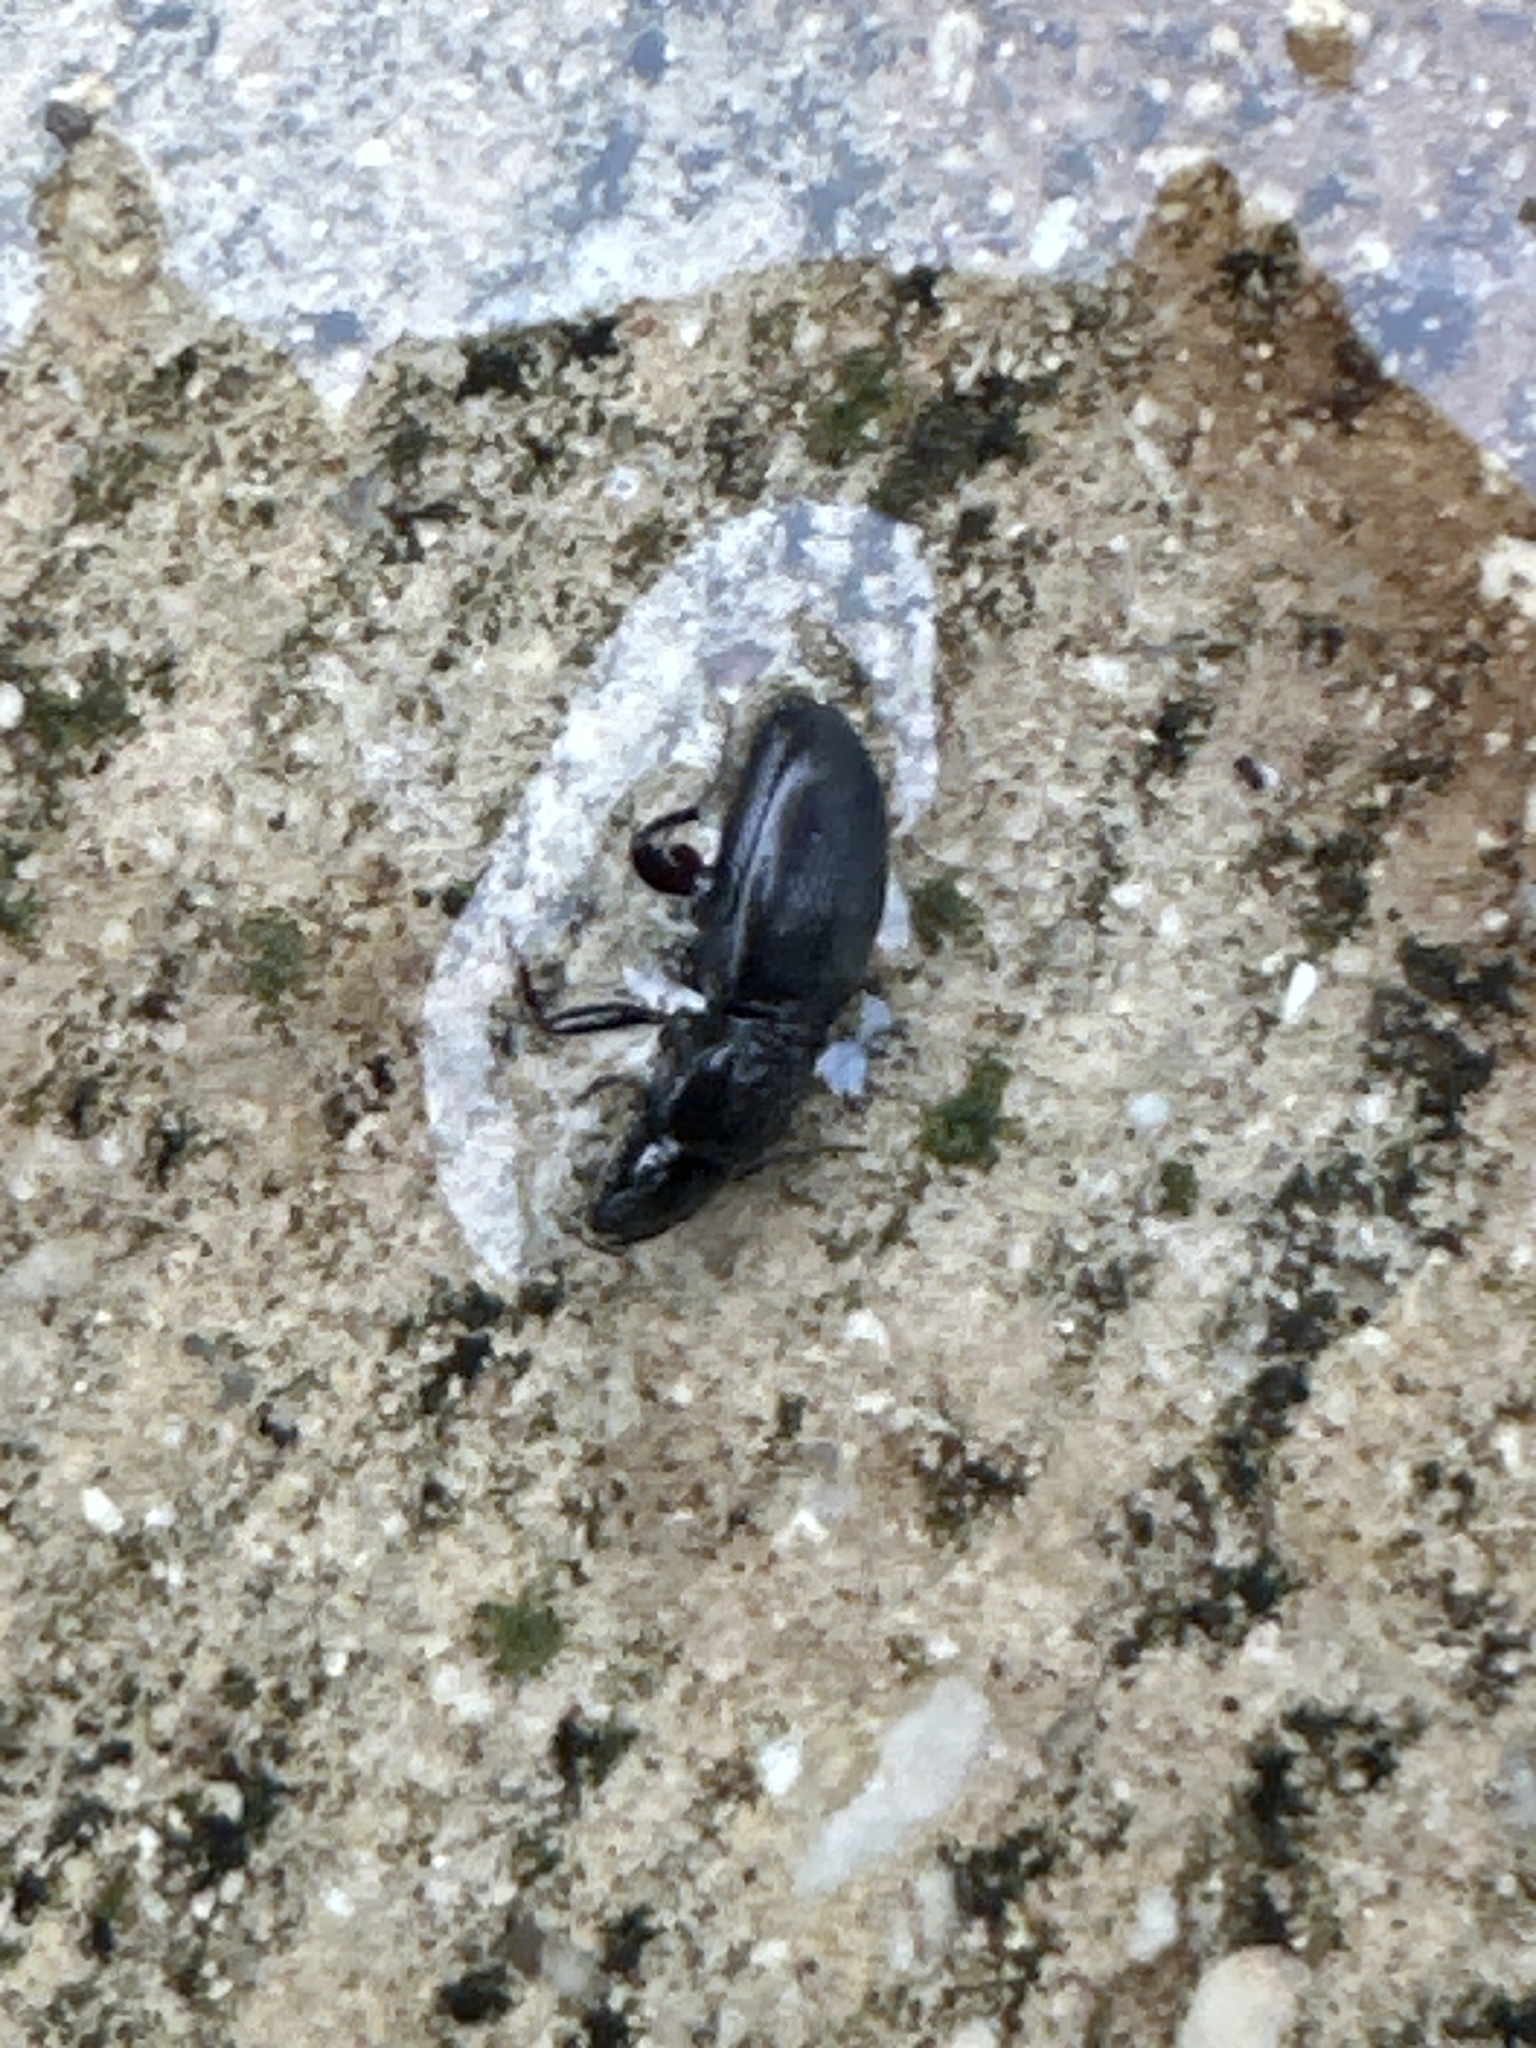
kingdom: Animalia
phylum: Arthropoda
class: Insecta
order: Coleoptera
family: Carabidae
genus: Cyclotrachelus
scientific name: Cyclotrachelus
